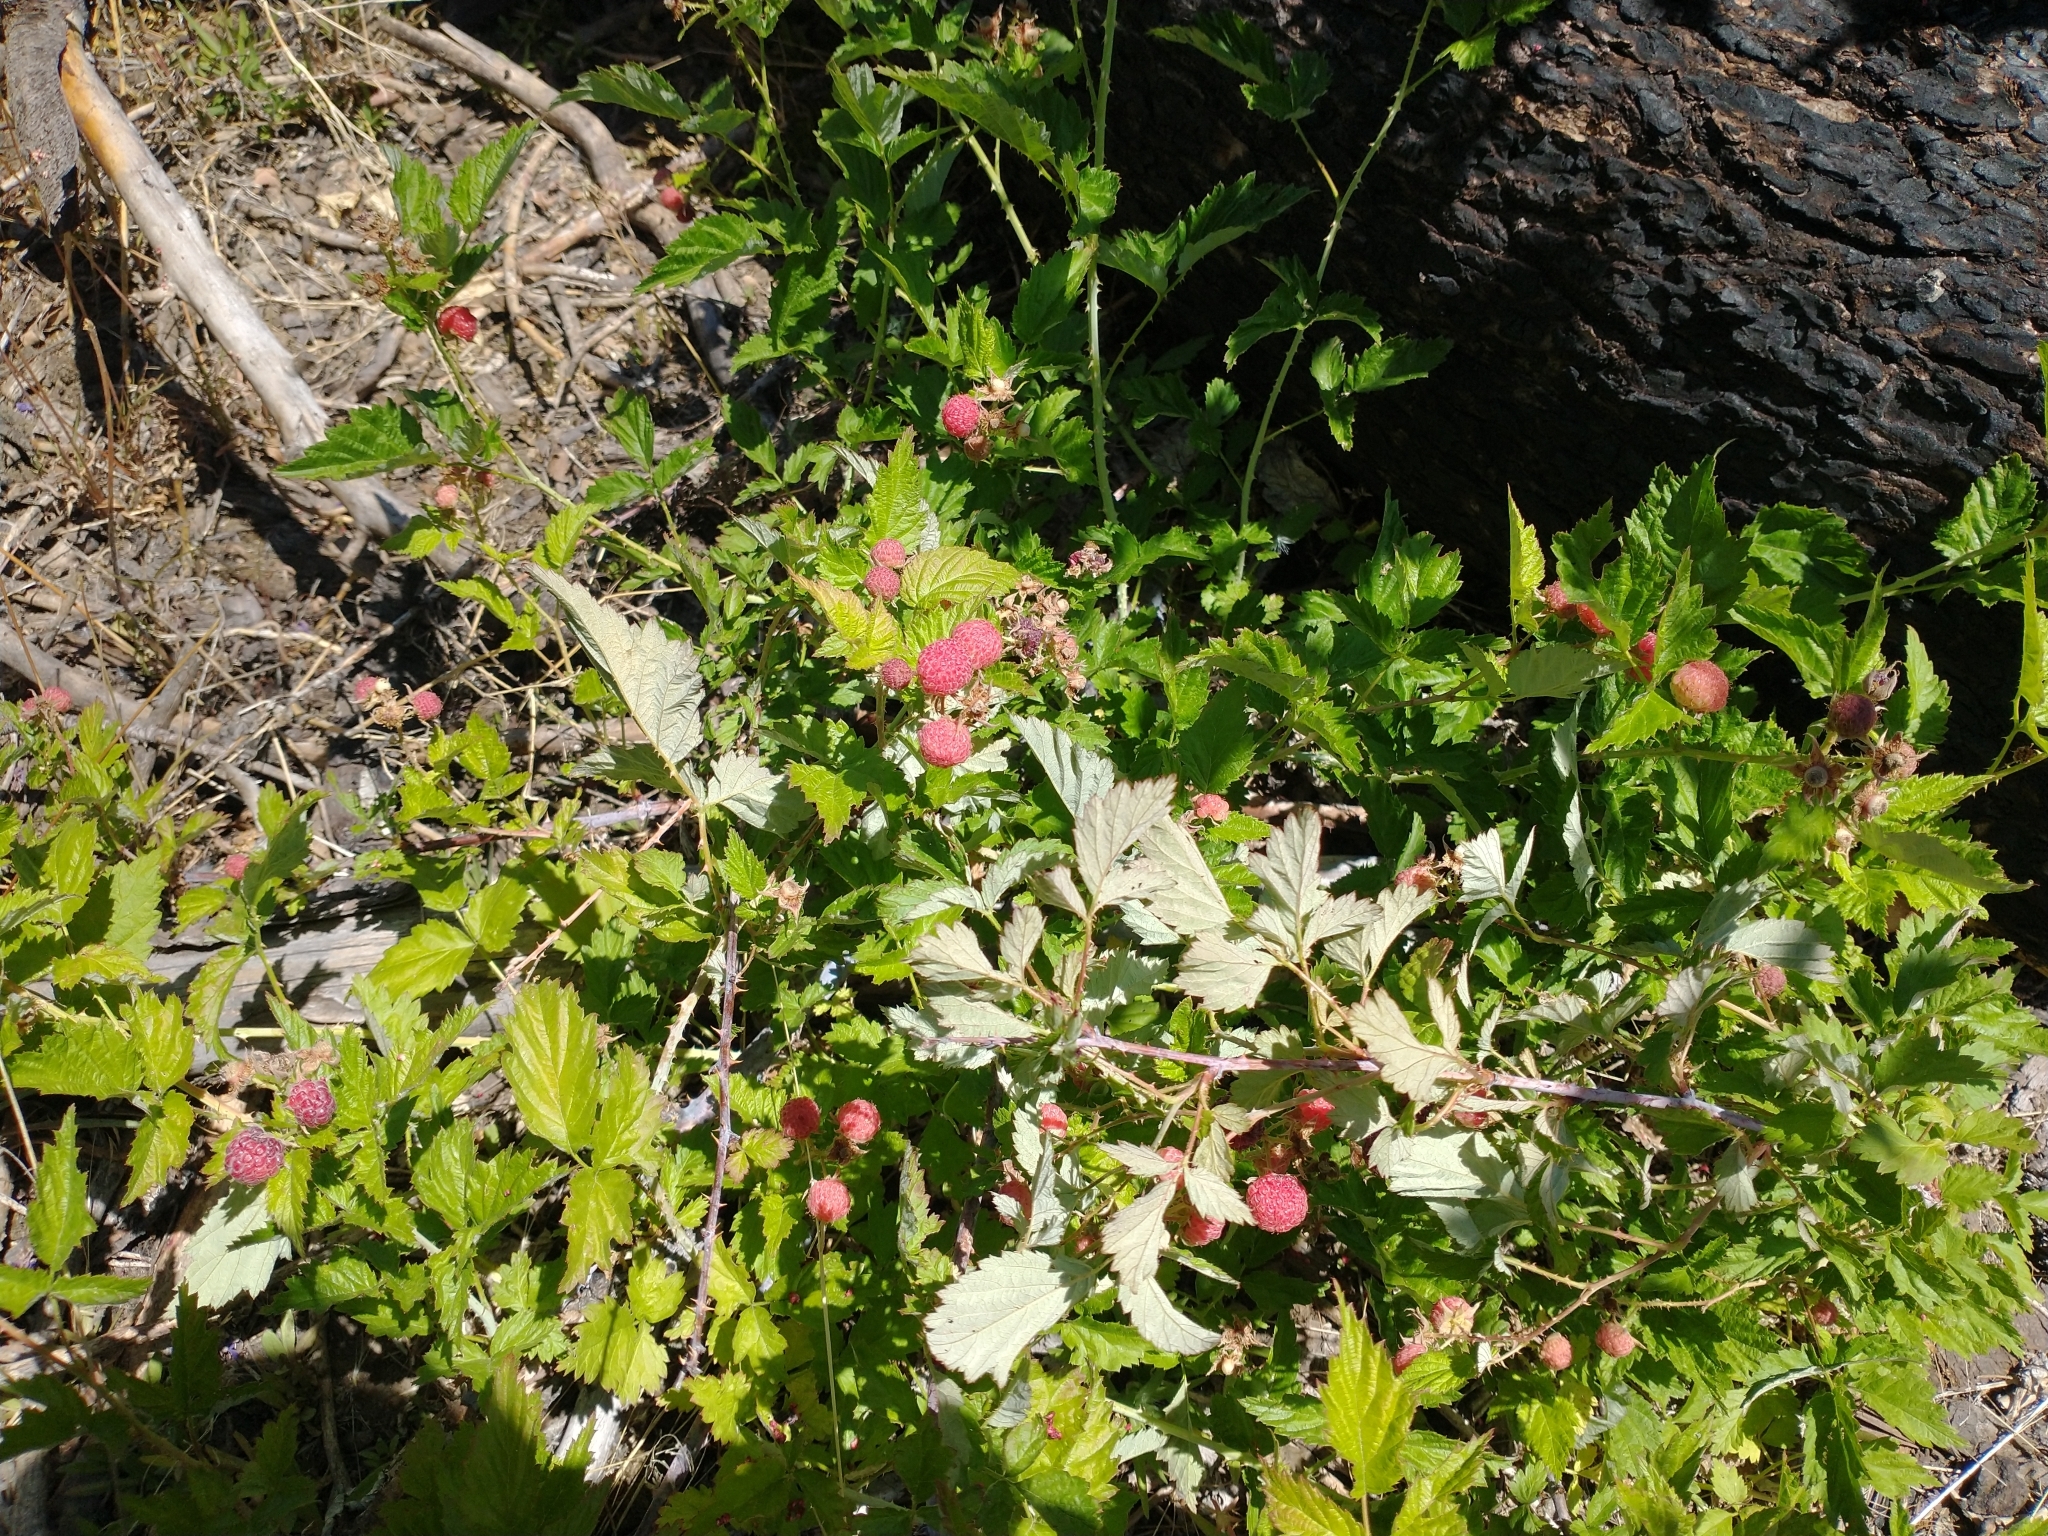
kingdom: Plantae
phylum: Tracheophyta
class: Magnoliopsida
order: Rosales
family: Rosaceae
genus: Rubus
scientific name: Rubus leucodermis
